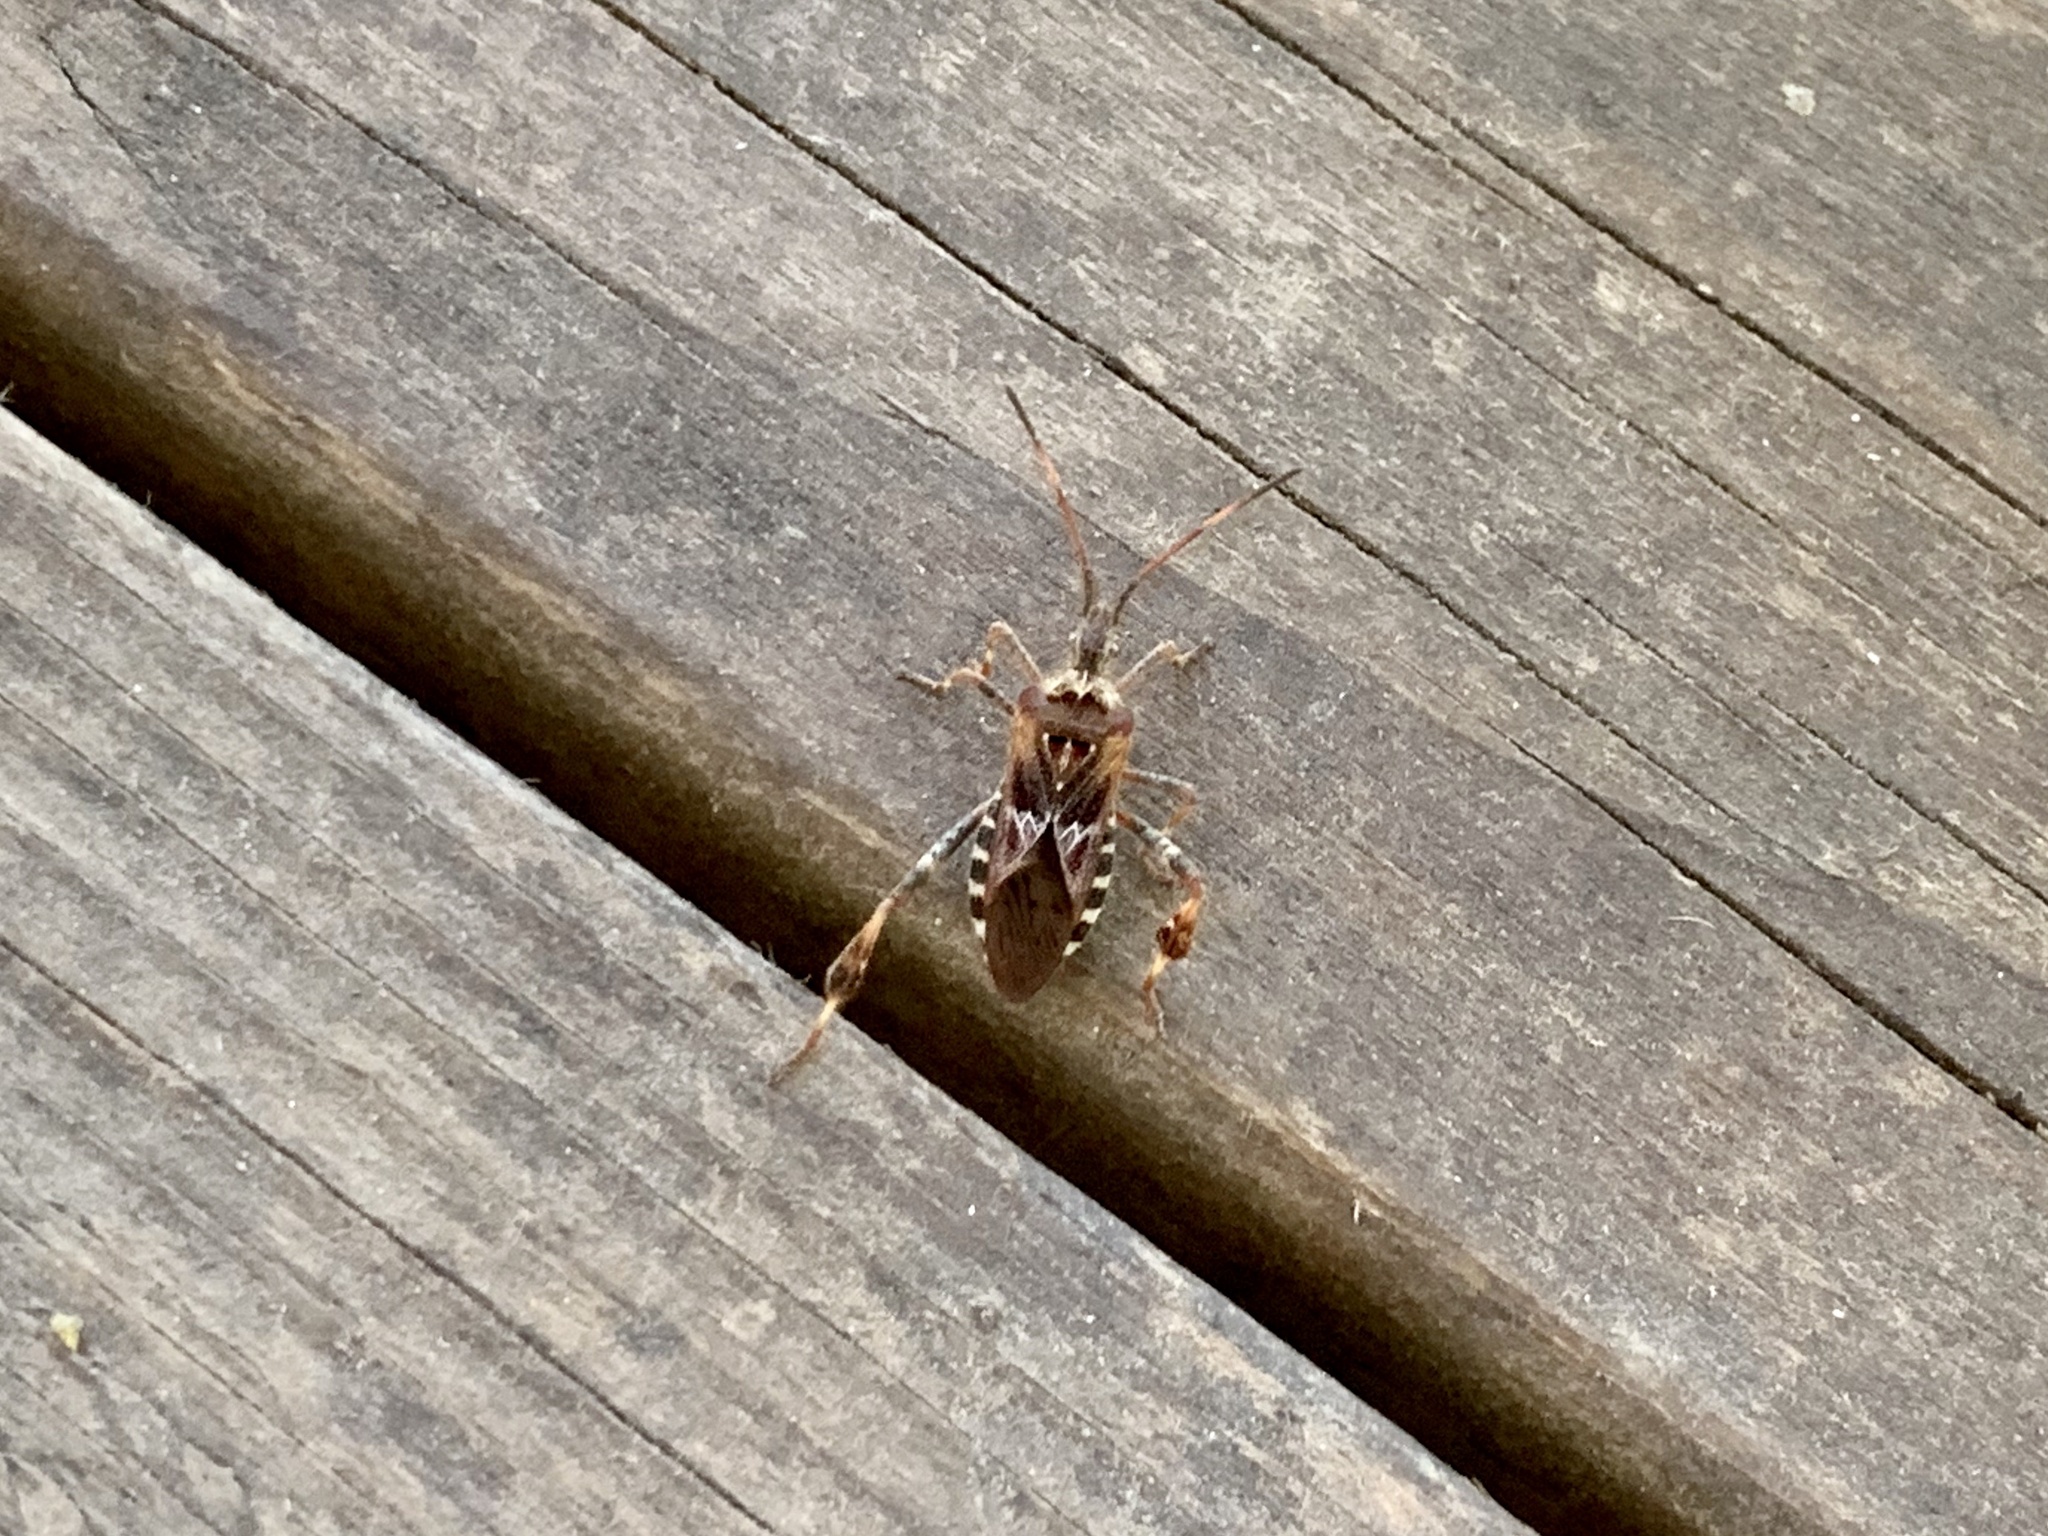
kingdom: Animalia
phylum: Arthropoda
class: Insecta
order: Hemiptera
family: Coreidae
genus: Leptoglossus
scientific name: Leptoglossus occidentalis
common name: Western conifer-seed bug
